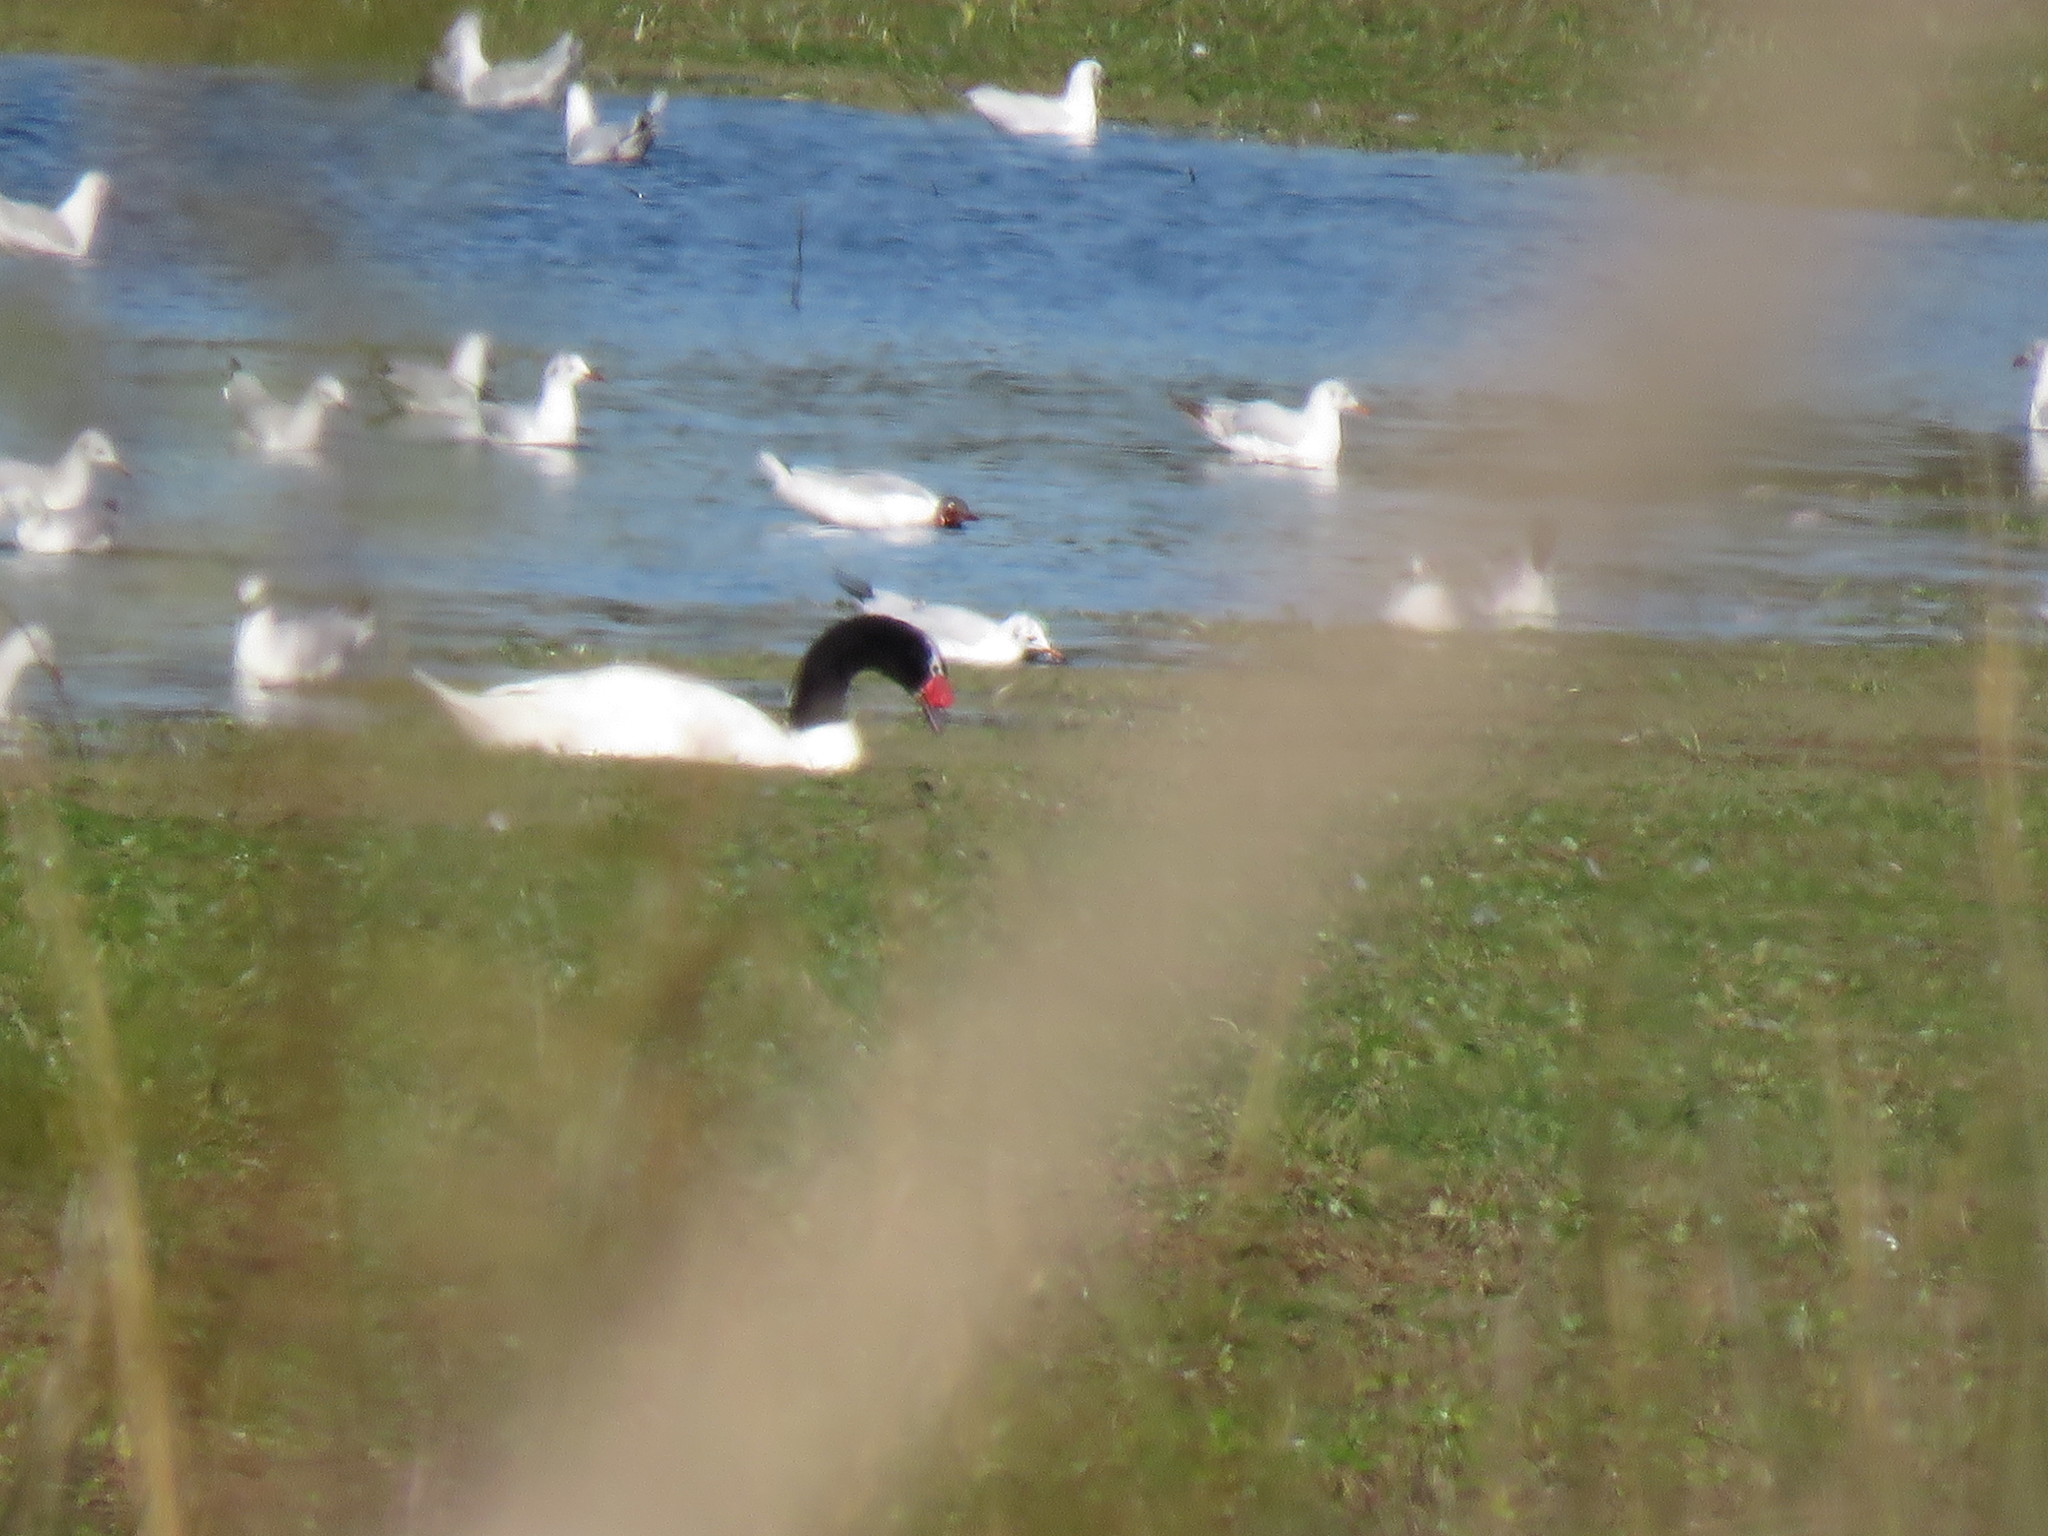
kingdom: Animalia
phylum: Chordata
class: Aves
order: Anseriformes
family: Anatidae
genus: Cygnus
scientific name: Cygnus melancoryphus
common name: Black-necked swan
